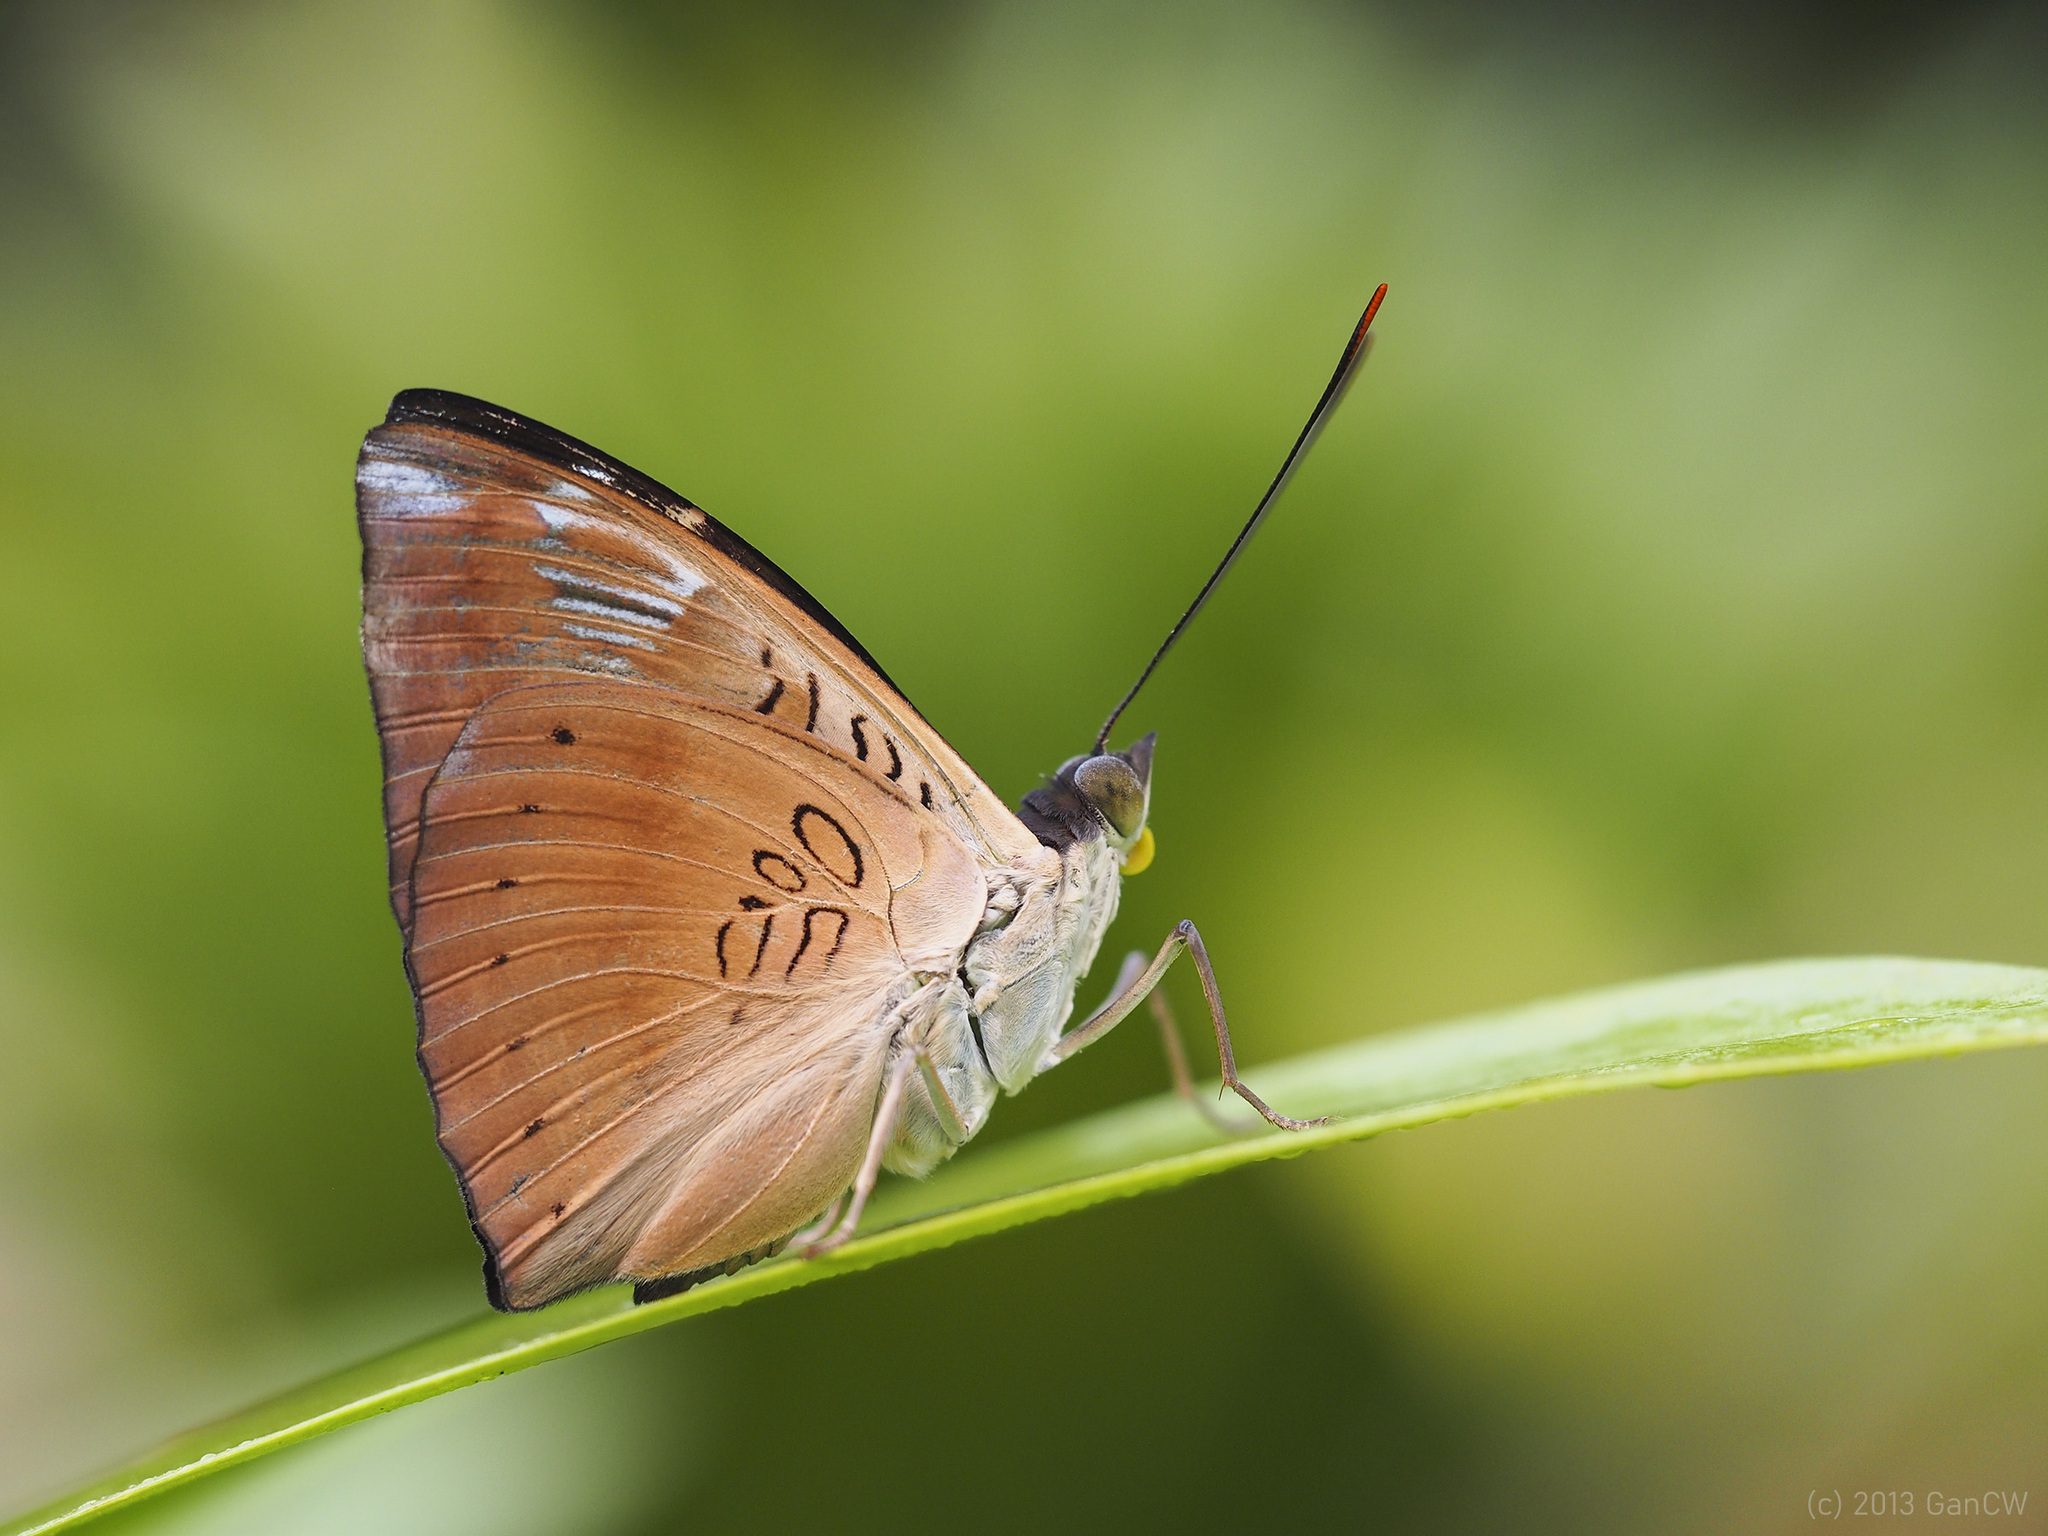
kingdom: Animalia
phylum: Arthropoda
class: Insecta
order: Lepidoptera
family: Nymphalidae
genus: Euthalia
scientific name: Euthalia alpheda
